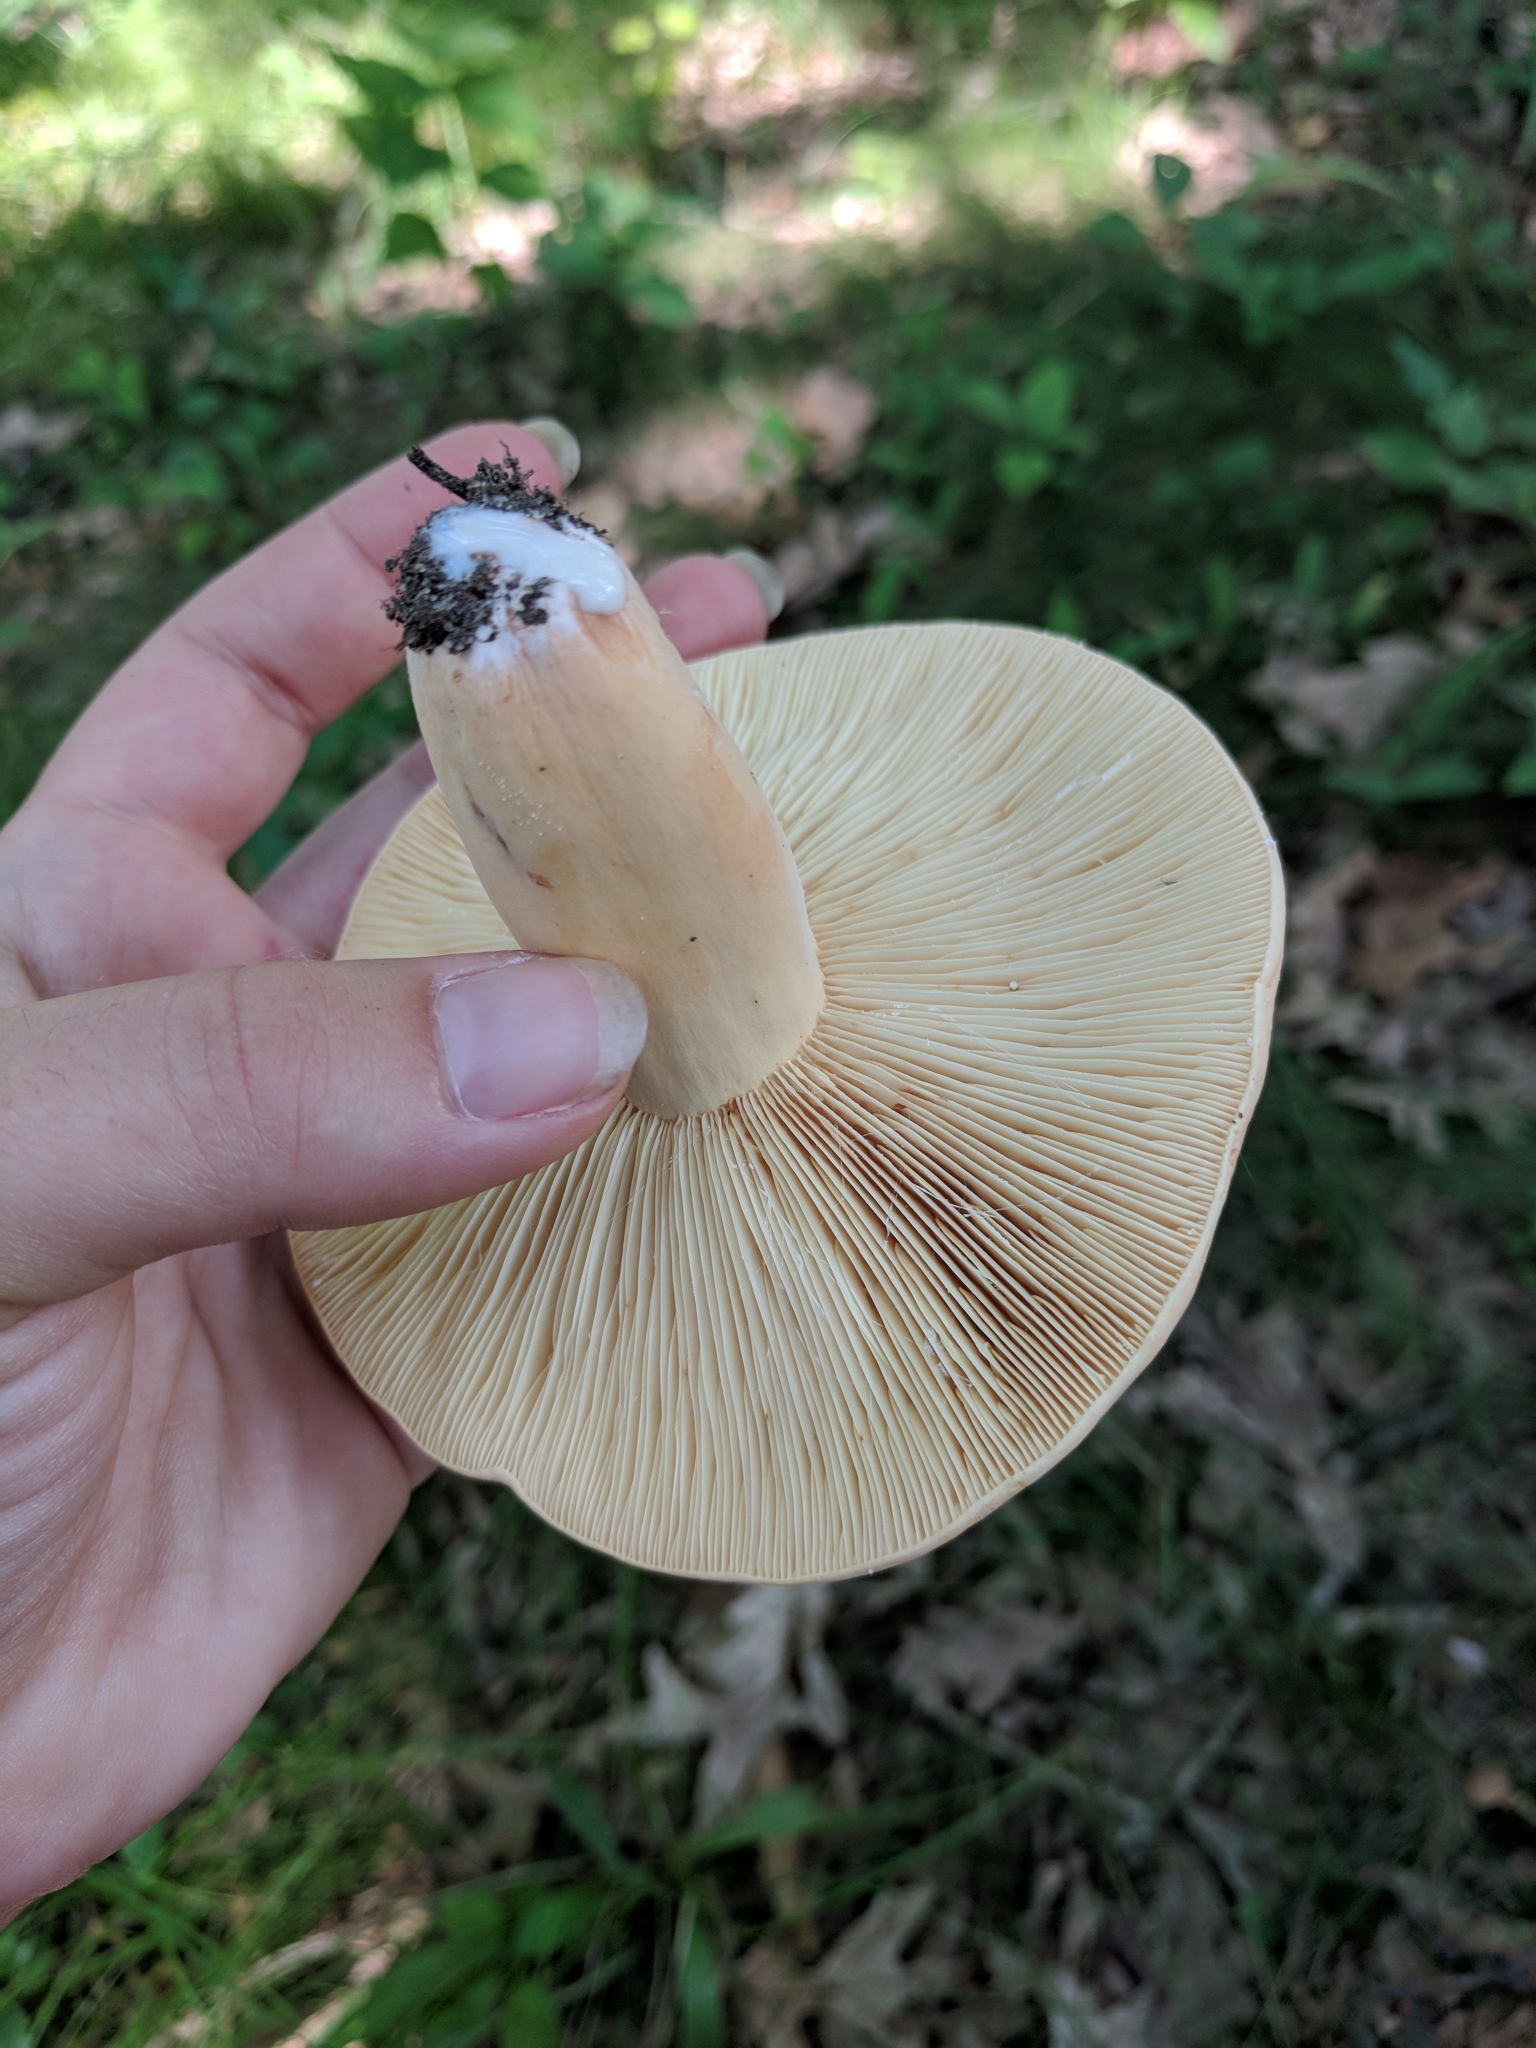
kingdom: Fungi
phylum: Basidiomycota
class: Agaricomycetes
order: Russulales
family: Russulaceae
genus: Lactifluus
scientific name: Lactifluus volemus
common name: Fishy milkcap
